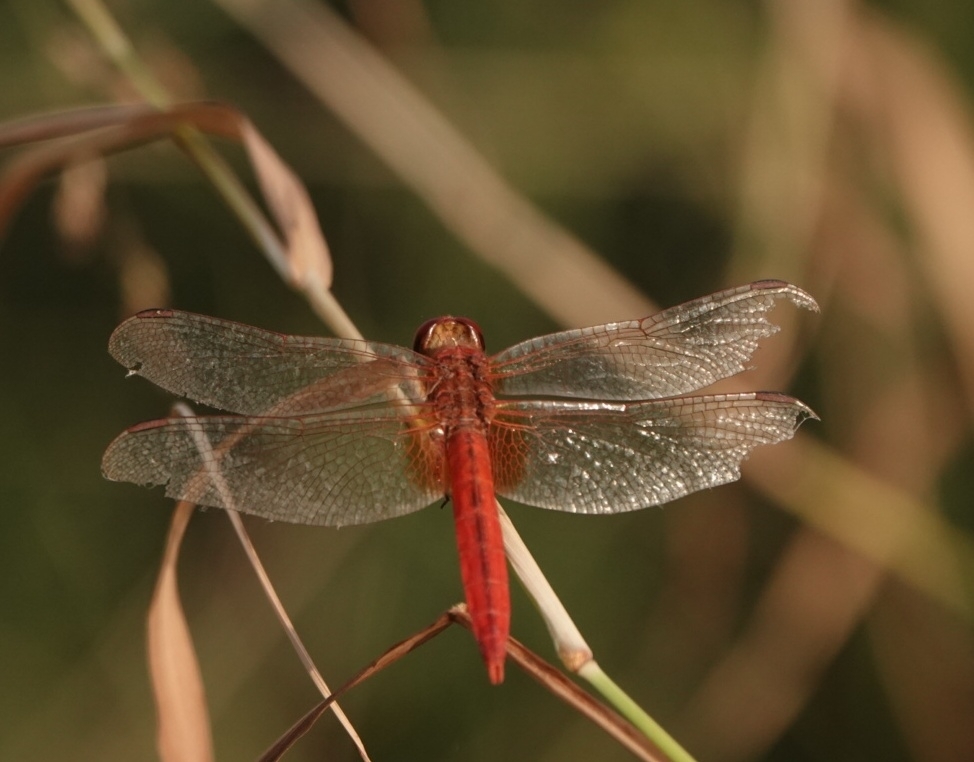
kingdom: Animalia
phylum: Arthropoda
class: Insecta
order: Odonata
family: Libellulidae
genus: Crocothemis
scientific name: Crocothemis servilia
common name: Scarlet skimmer
